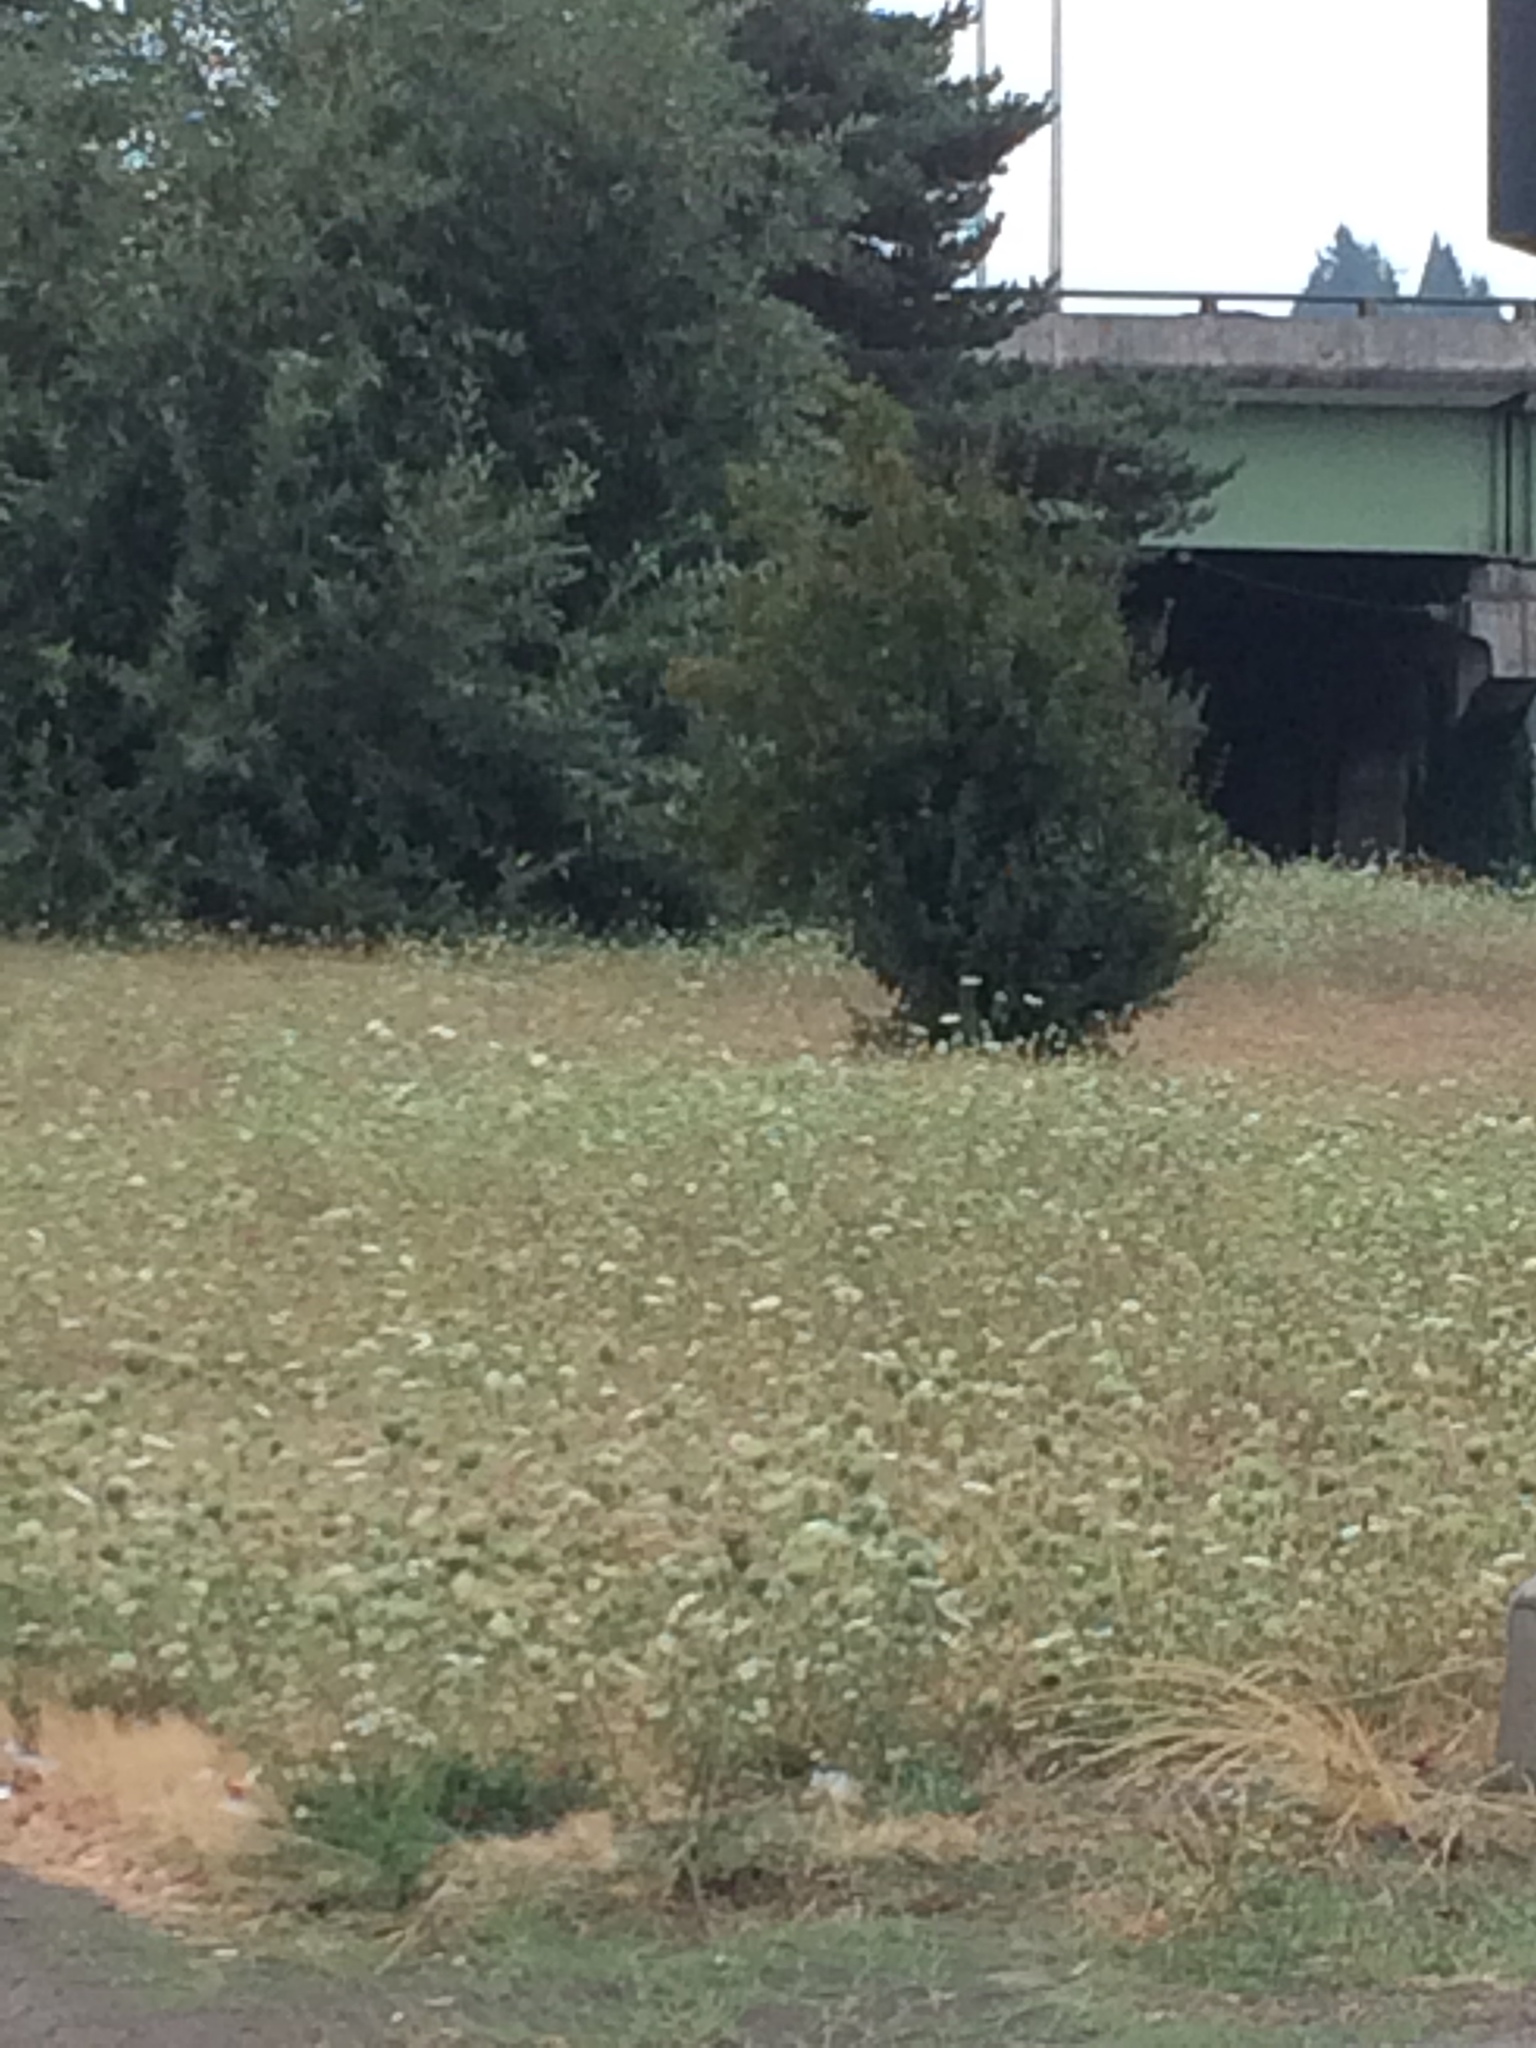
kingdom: Plantae
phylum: Tracheophyta
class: Magnoliopsida
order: Apiales
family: Apiaceae
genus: Daucus
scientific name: Daucus carota
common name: Wild carrot
